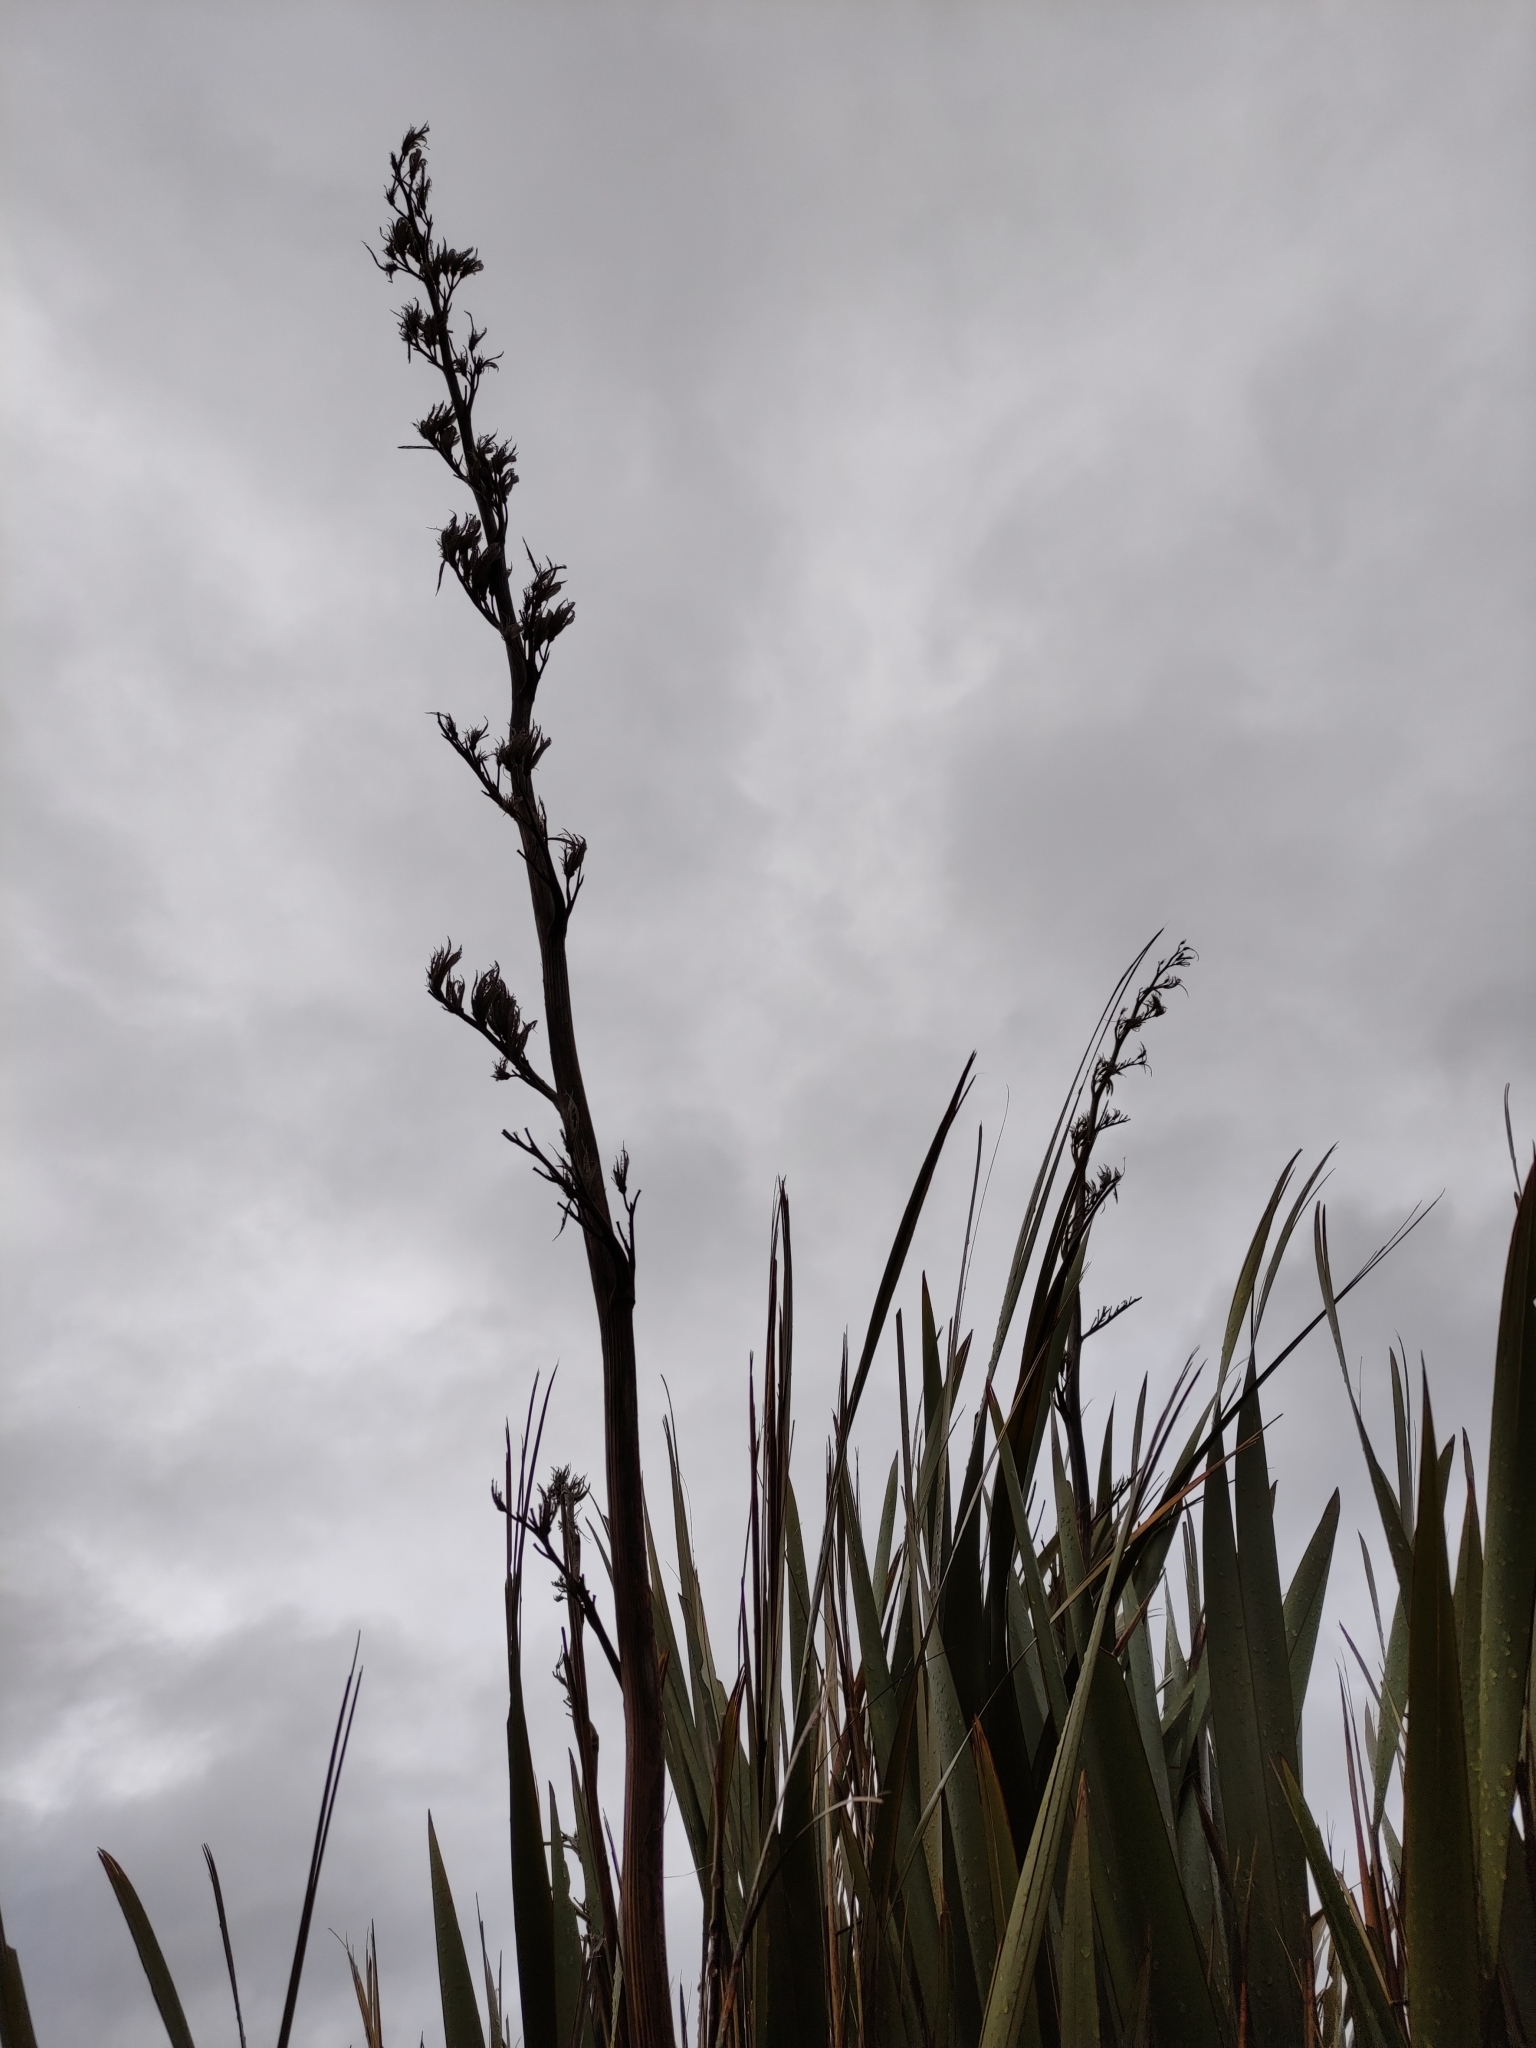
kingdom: Plantae
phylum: Tracheophyta
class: Liliopsida
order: Asparagales
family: Asphodelaceae
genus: Phormium
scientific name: Phormium tenax
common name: New zealand flax
